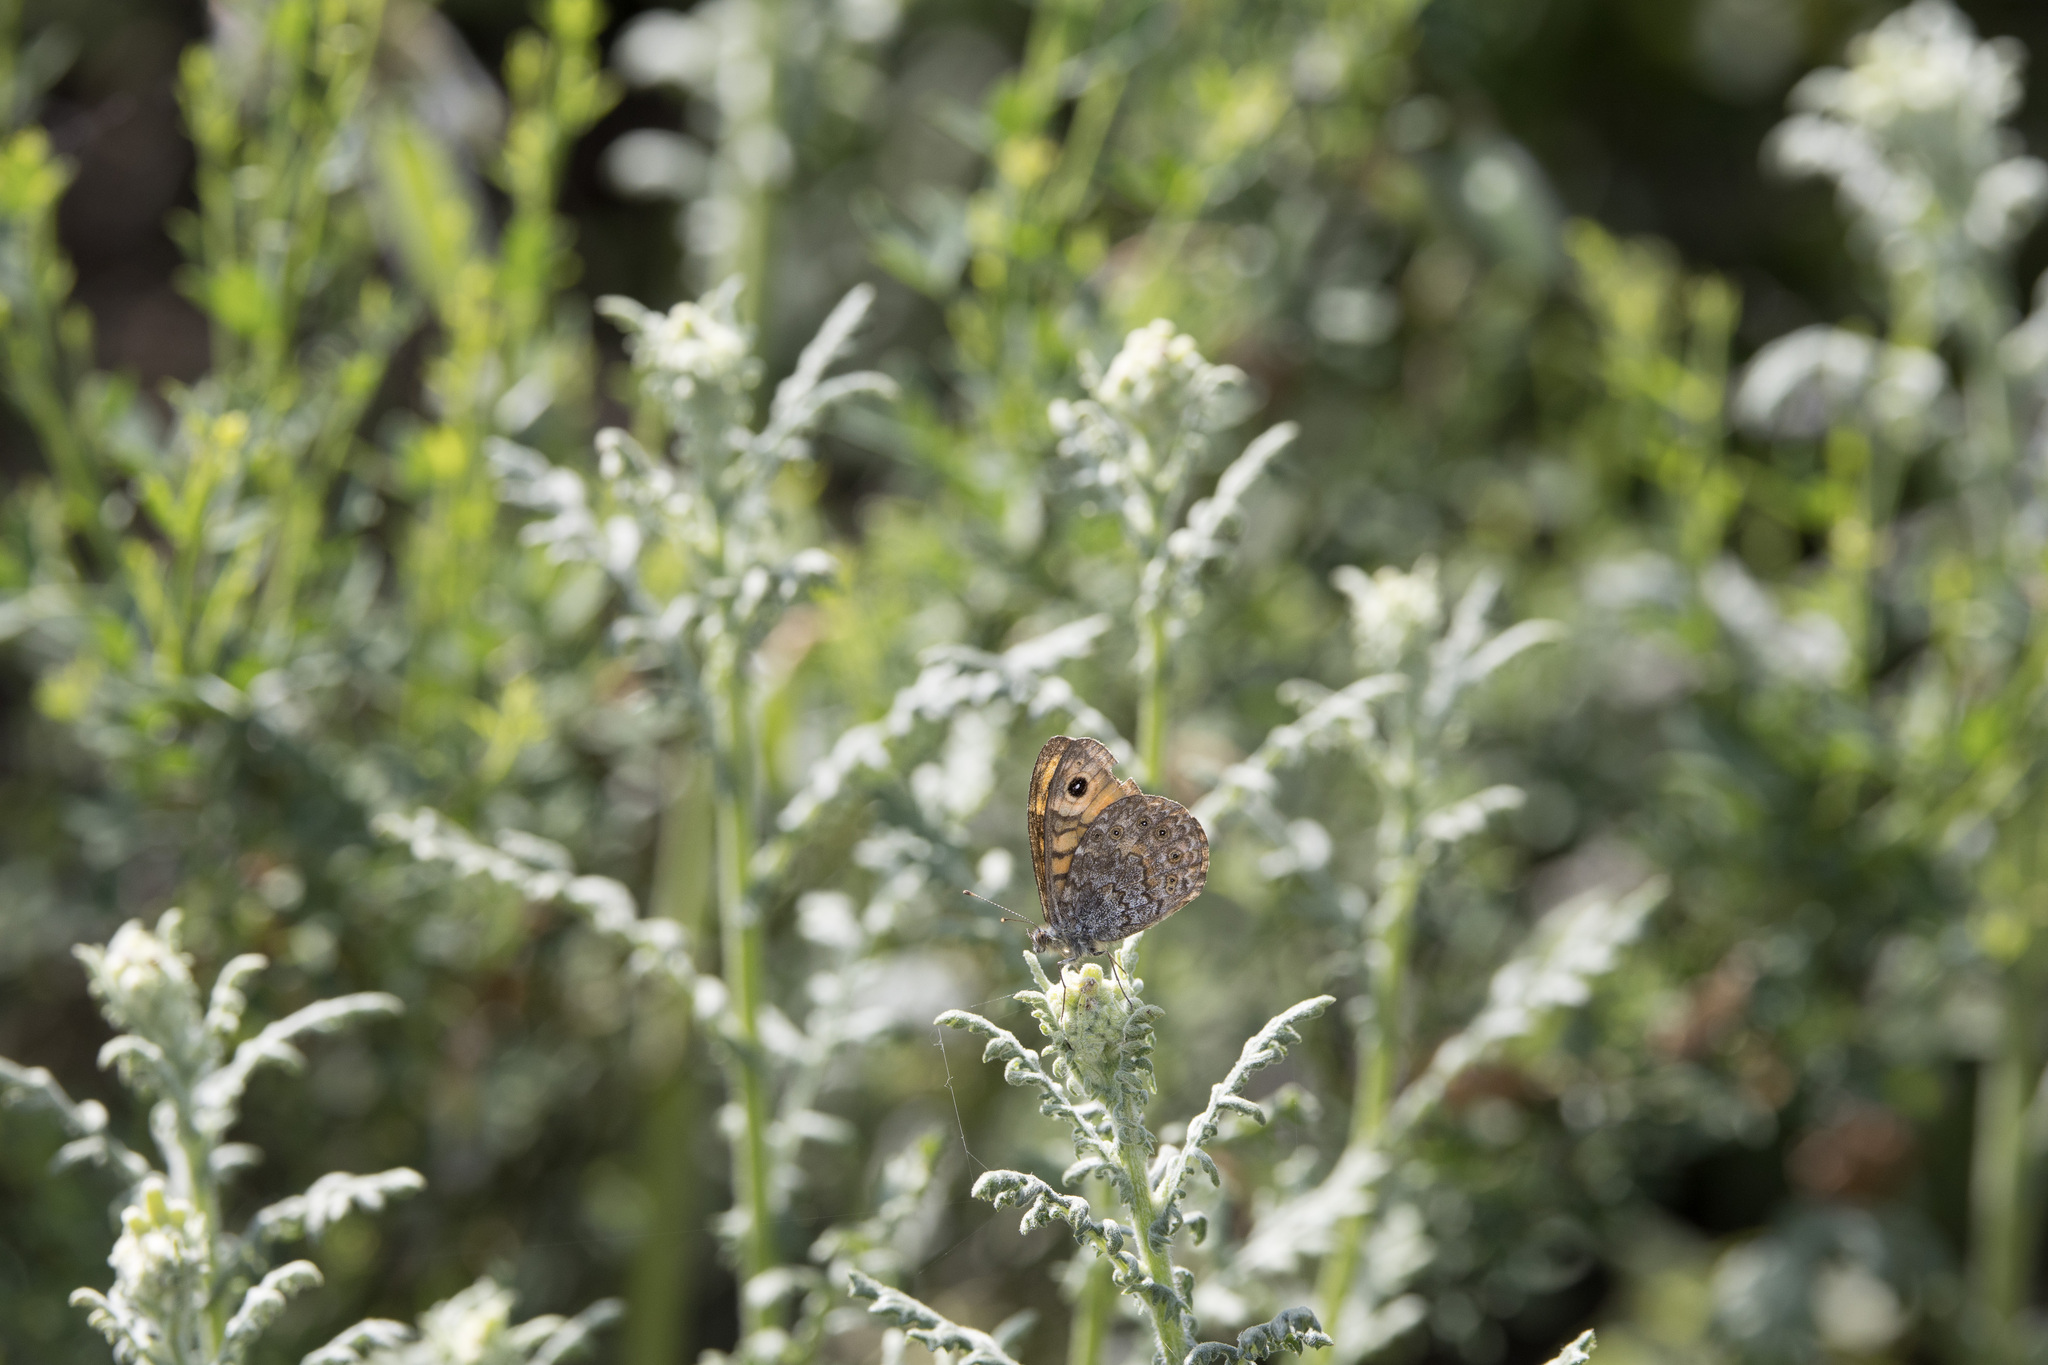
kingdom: Animalia
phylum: Arthropoda
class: Insecta
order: Lepidoptera
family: Nymphalidae
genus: Pararge
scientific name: Pararge Lasiommata megera
